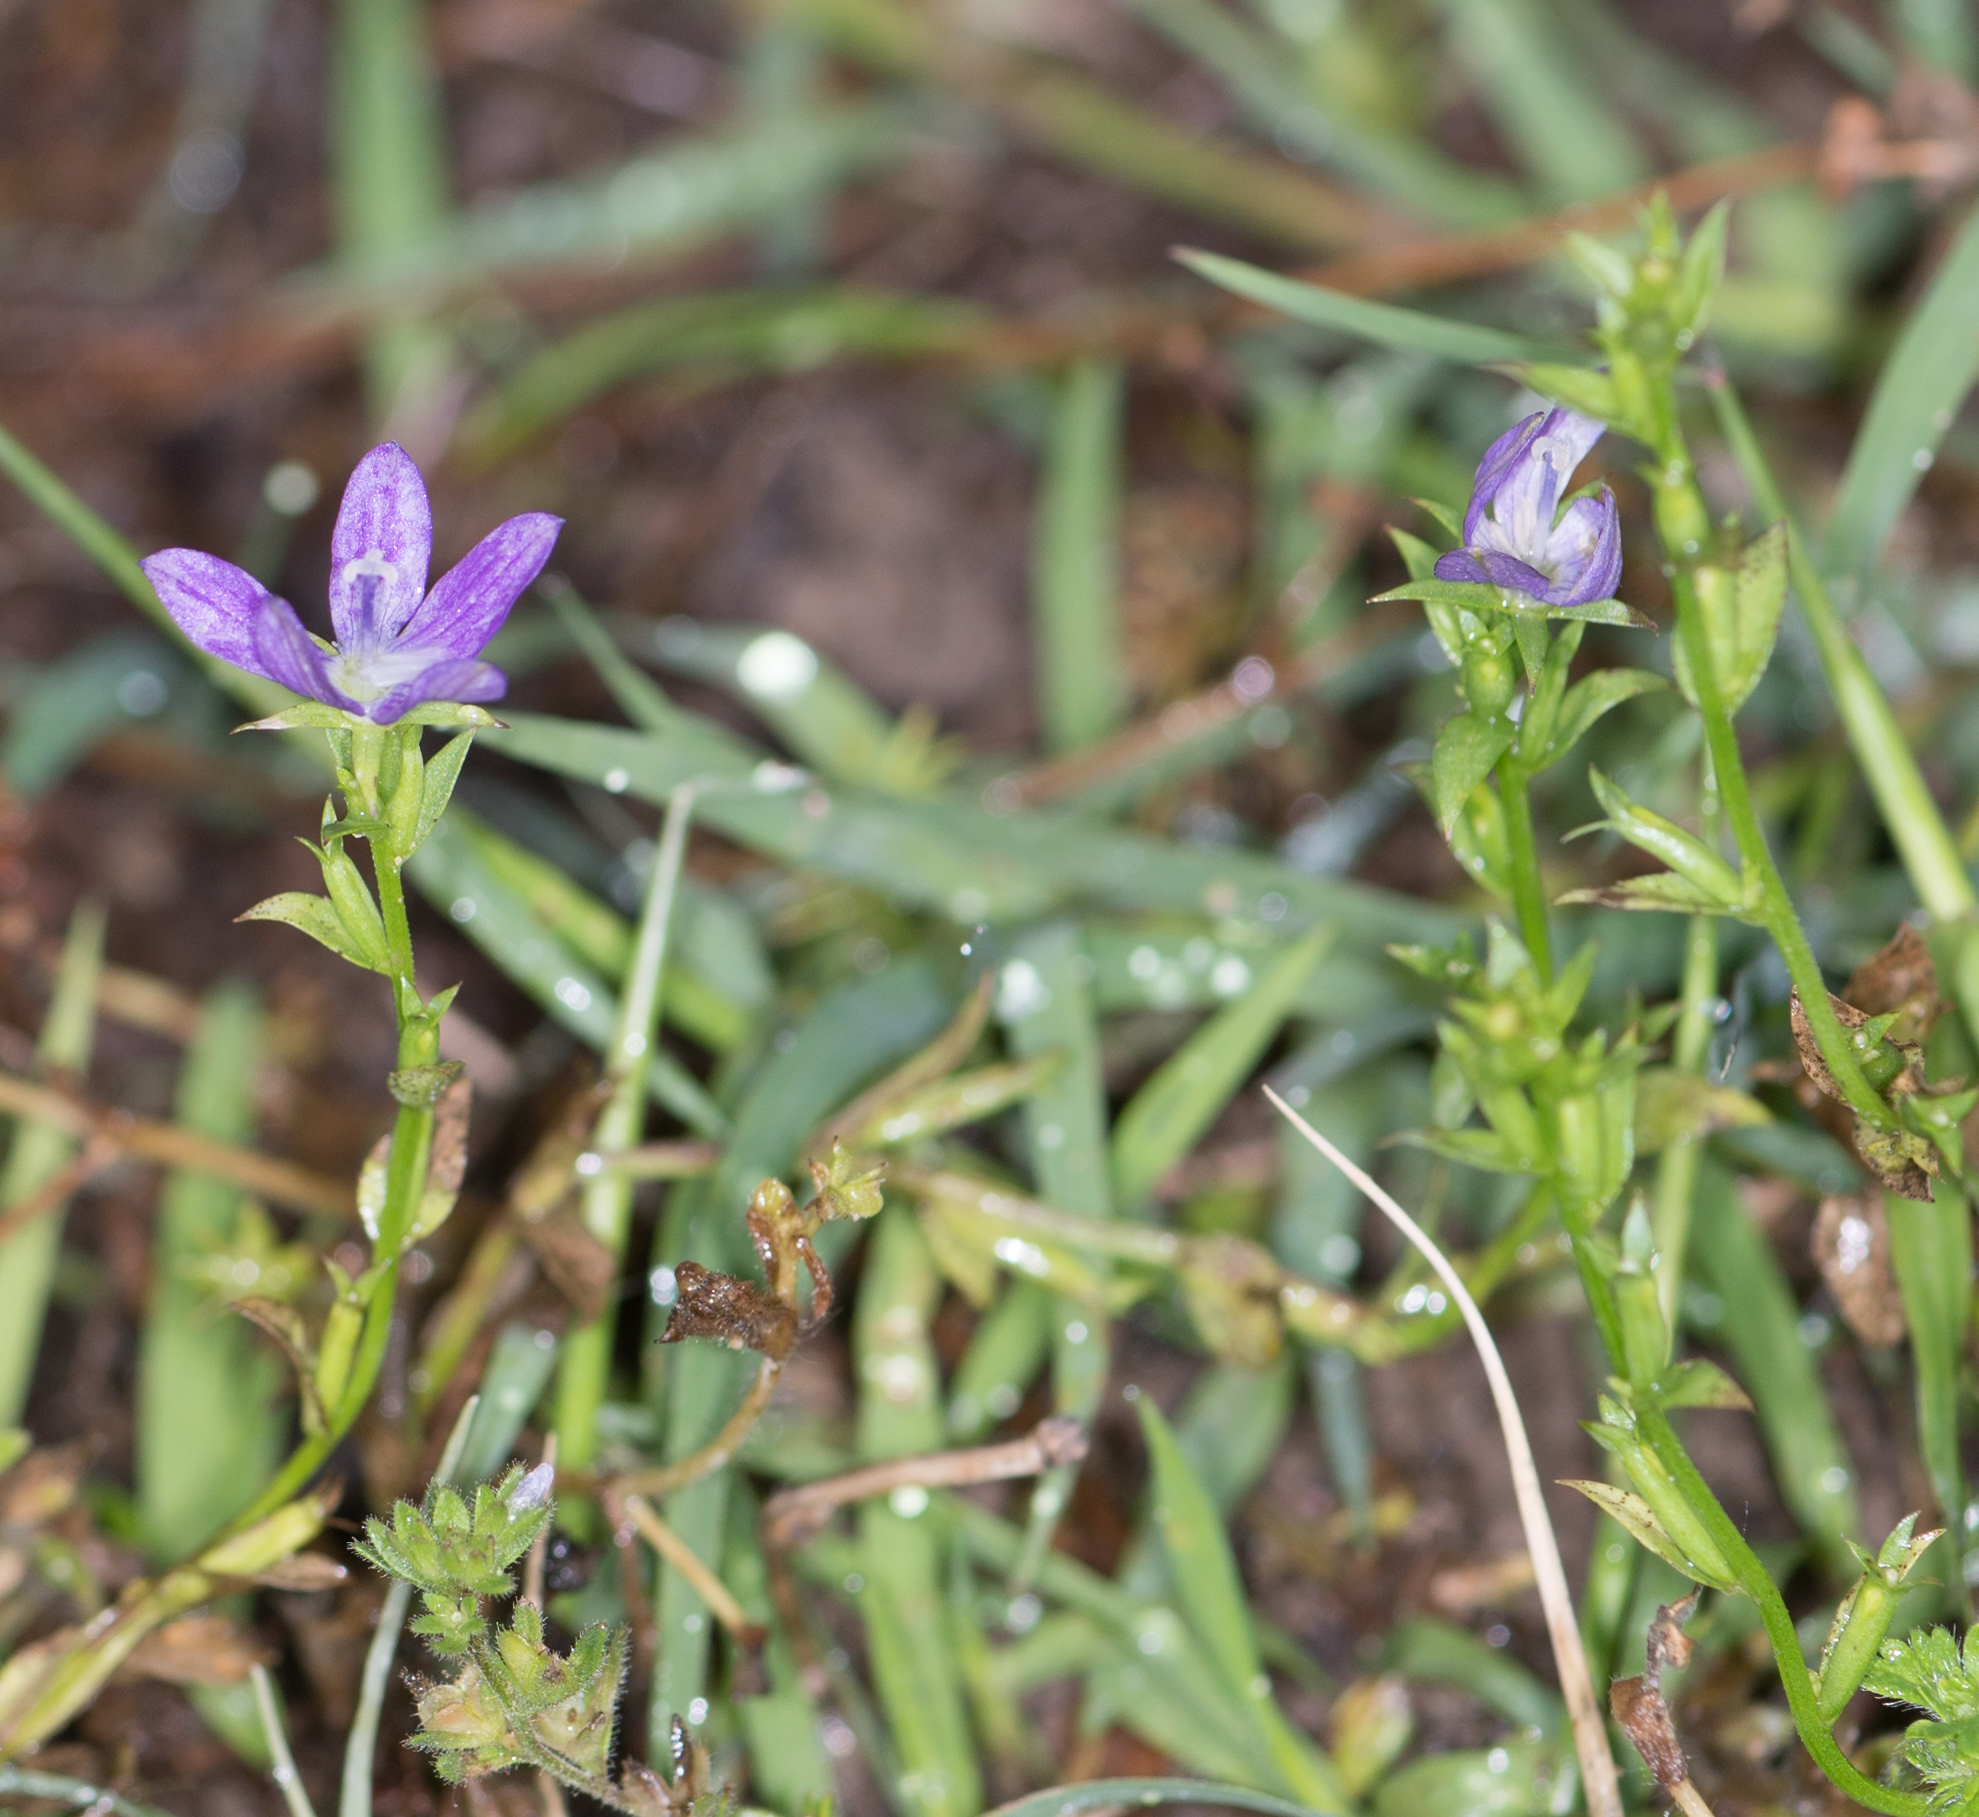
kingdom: Plantae
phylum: Tracheophyta
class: Magnoliopsida
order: Asterales
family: Campanulaceae
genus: Triodanis
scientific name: Triodanis biflora
